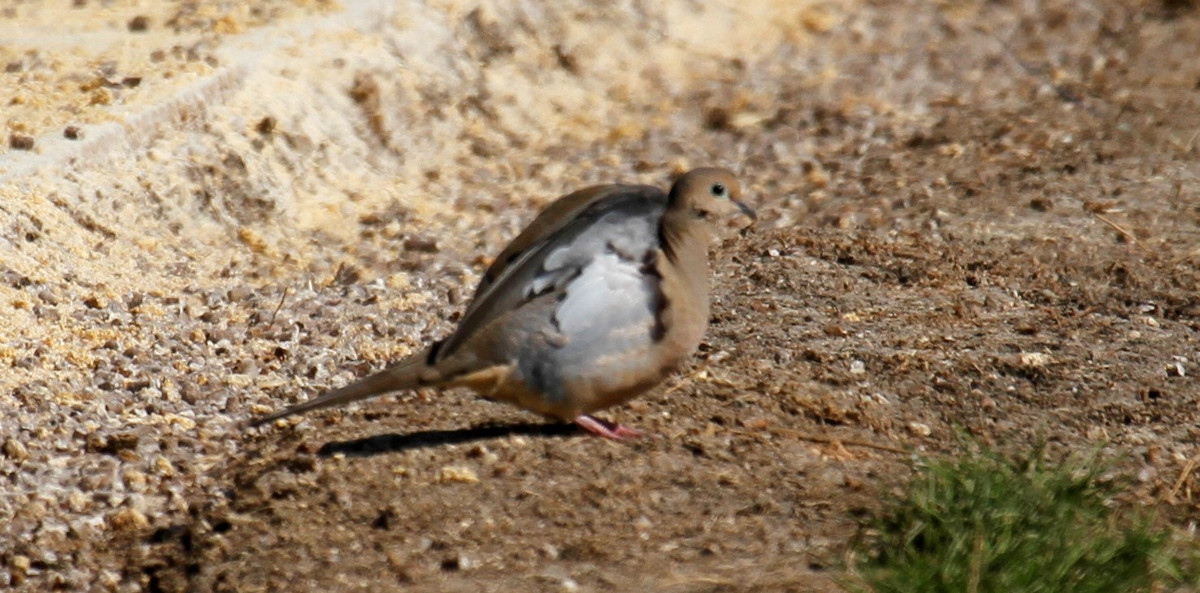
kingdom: Animalia
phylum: Chordata
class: Aves
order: Columbiformes
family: Columbidae
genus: Zenaida
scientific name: Zenaida macroura
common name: Mourning dove
